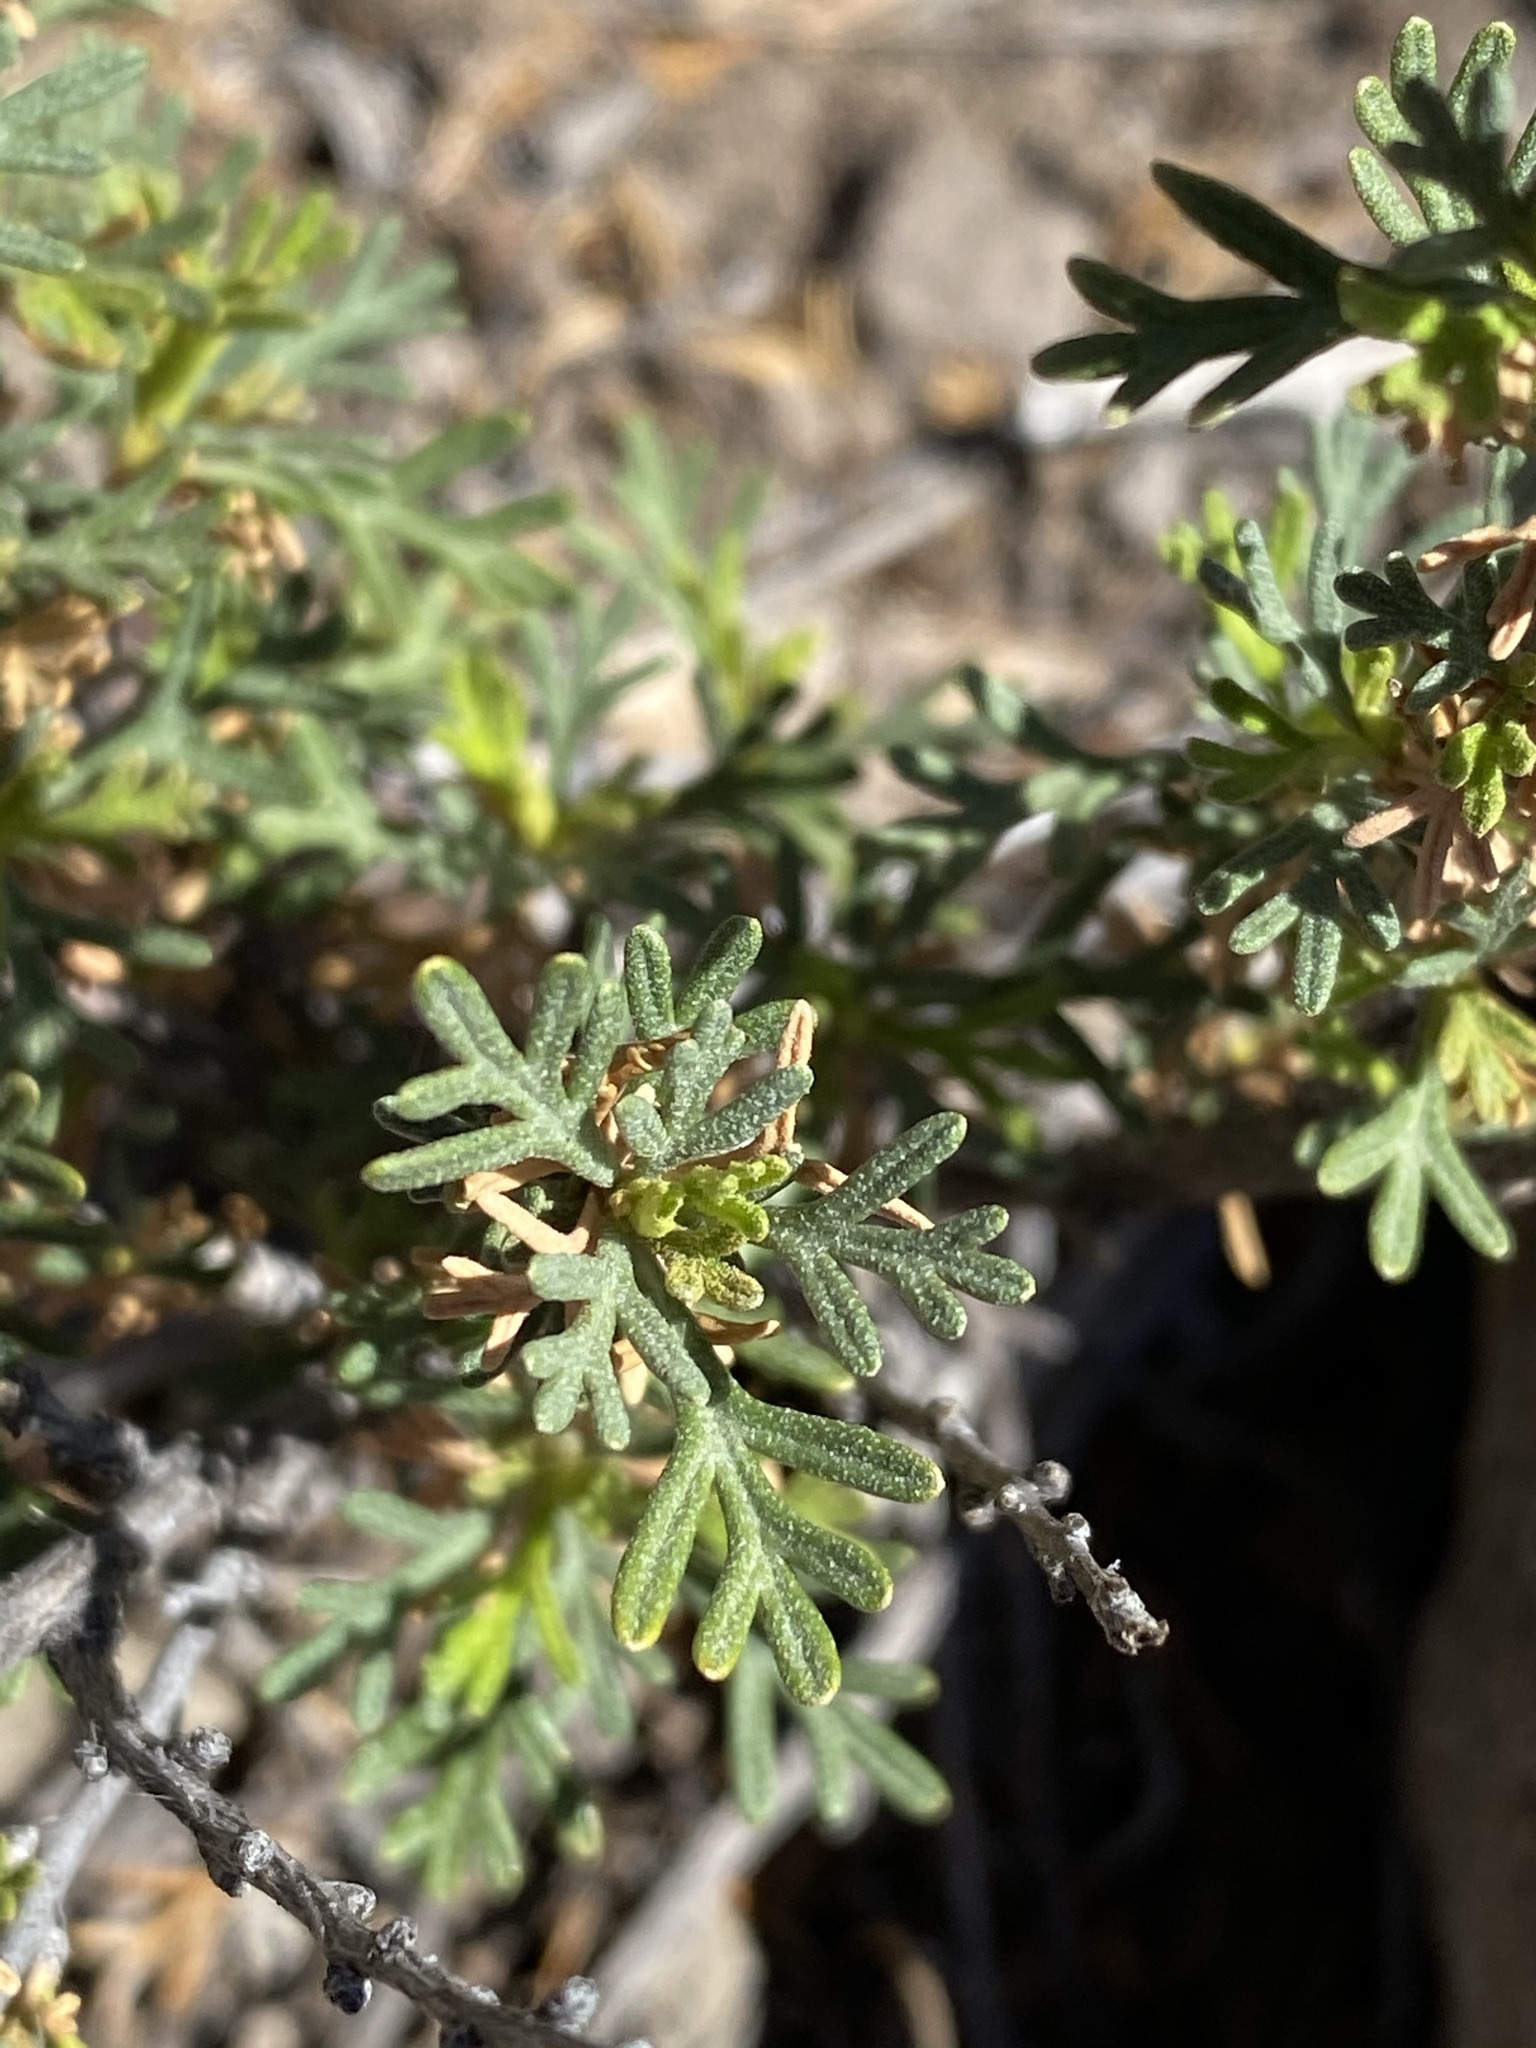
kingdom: Plantae
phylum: Tracheophyta
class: Magnoliopsida
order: Rosales
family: Rosaceae
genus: Fallugia
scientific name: Fallugia paradoxa
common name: Apache-plume
